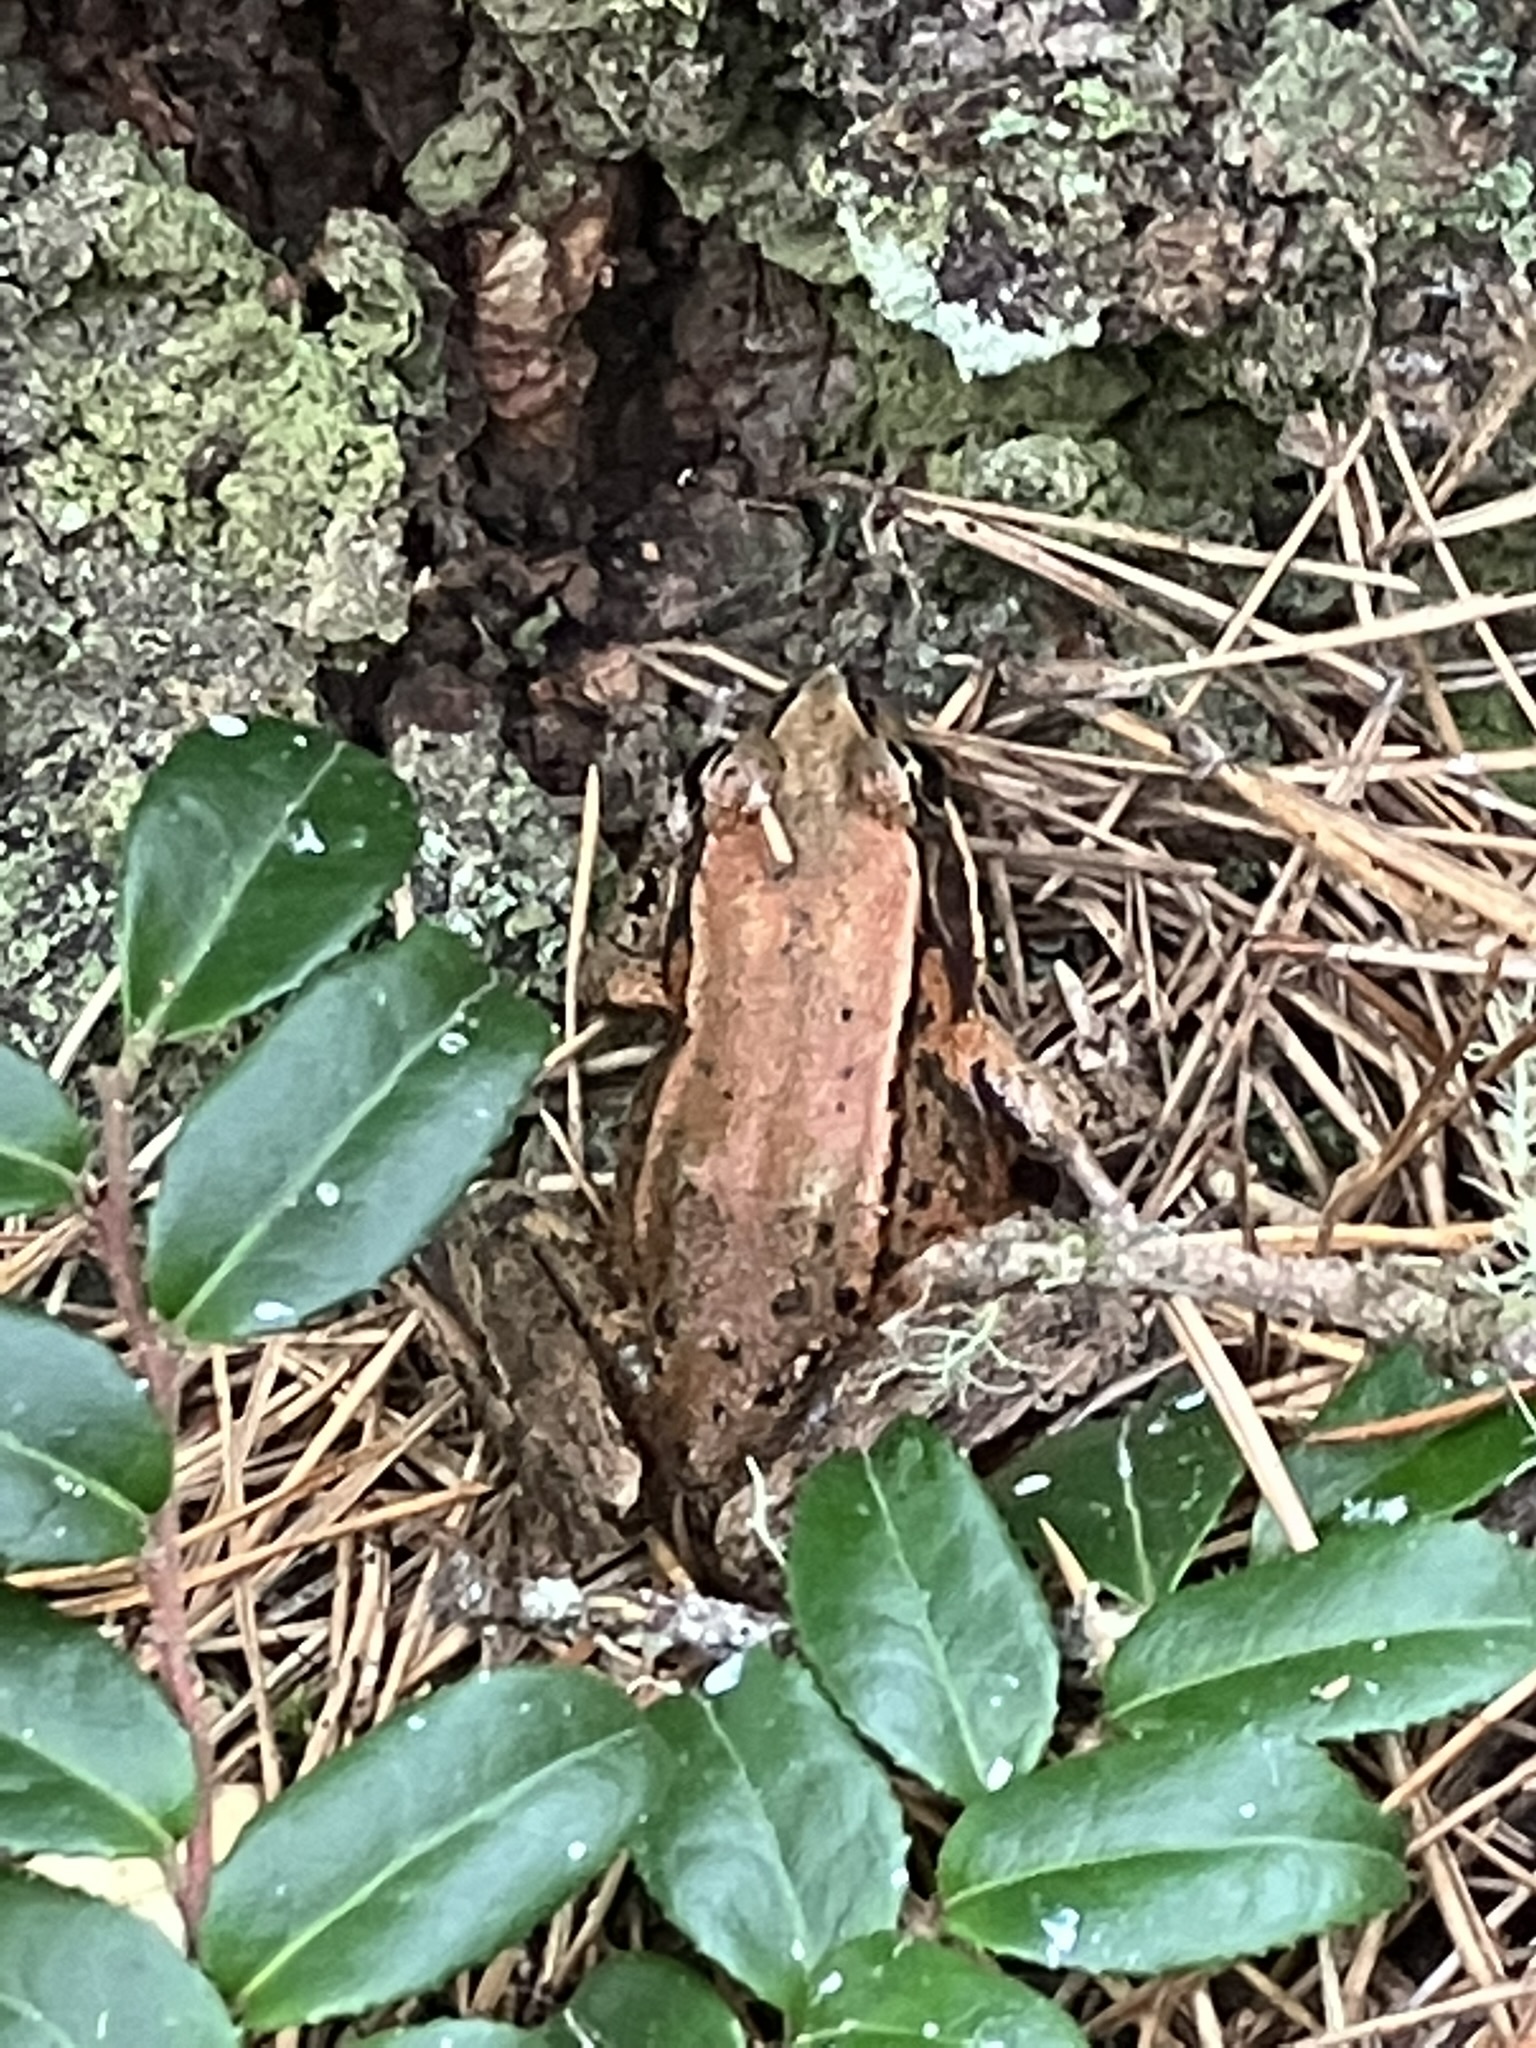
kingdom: Animalia
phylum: Chordata
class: Amphibia
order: Anura
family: Ranidae
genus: Rana
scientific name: Rana aurora
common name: Red-legged frog
